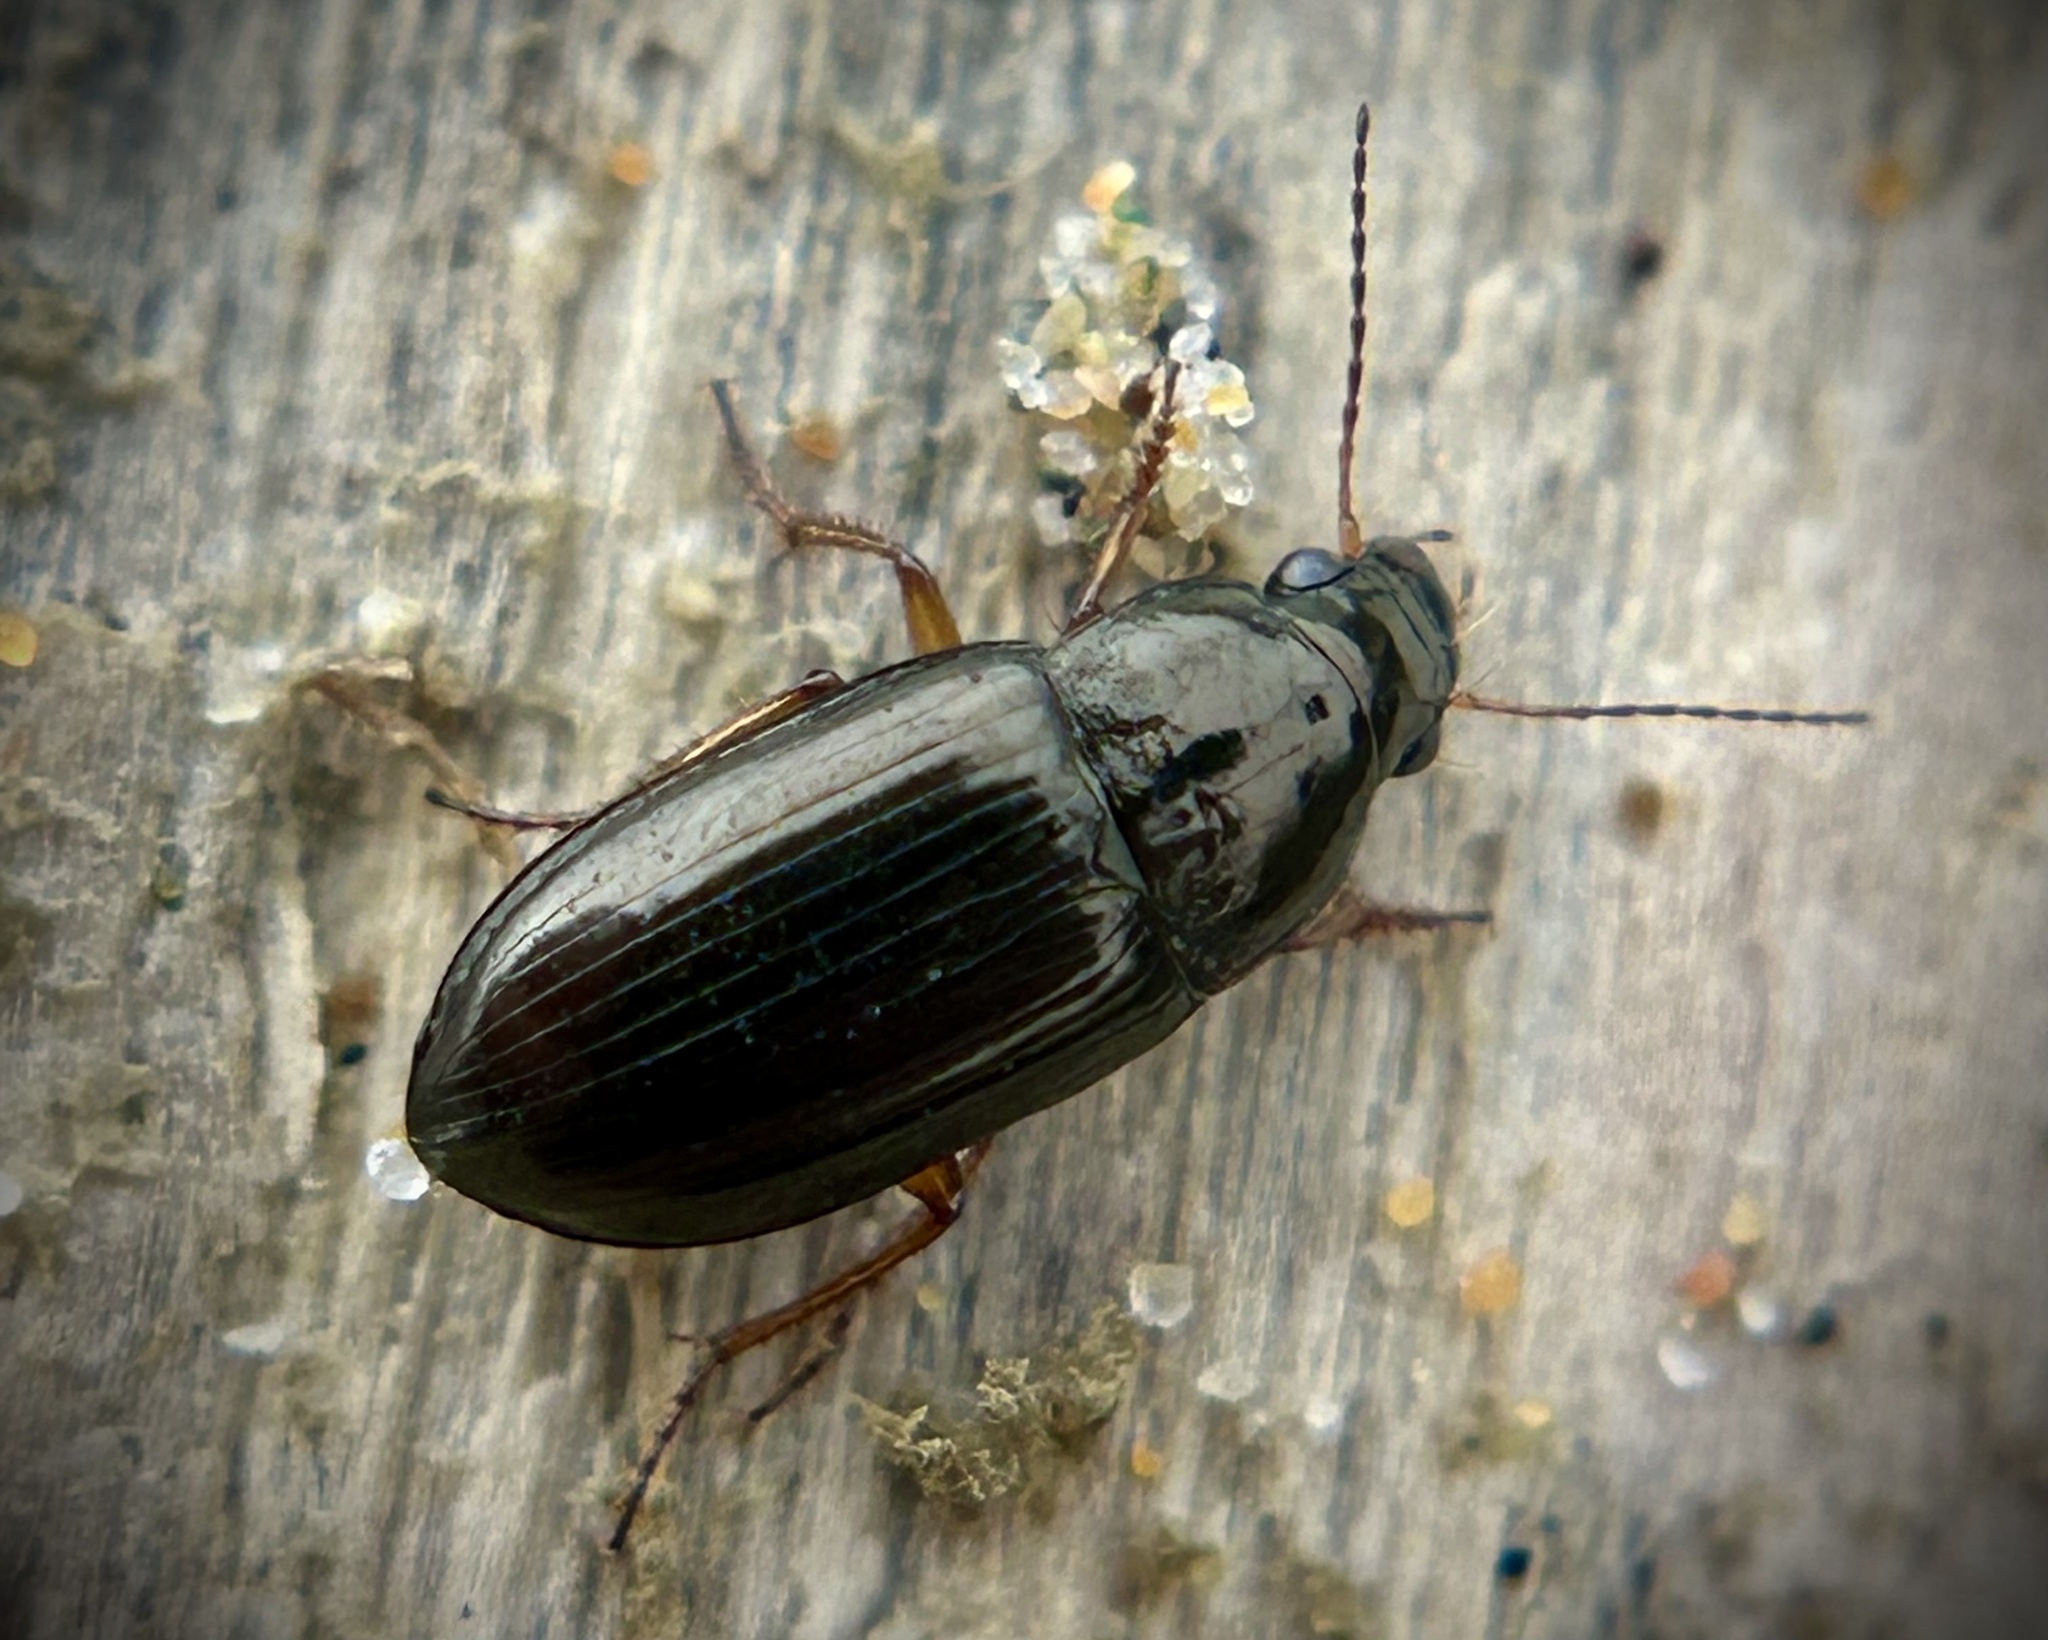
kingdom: Animalia
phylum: Arthropoda
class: Insecta
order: Coleoptera
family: Carabidae
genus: Amara
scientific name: Amara pomona
